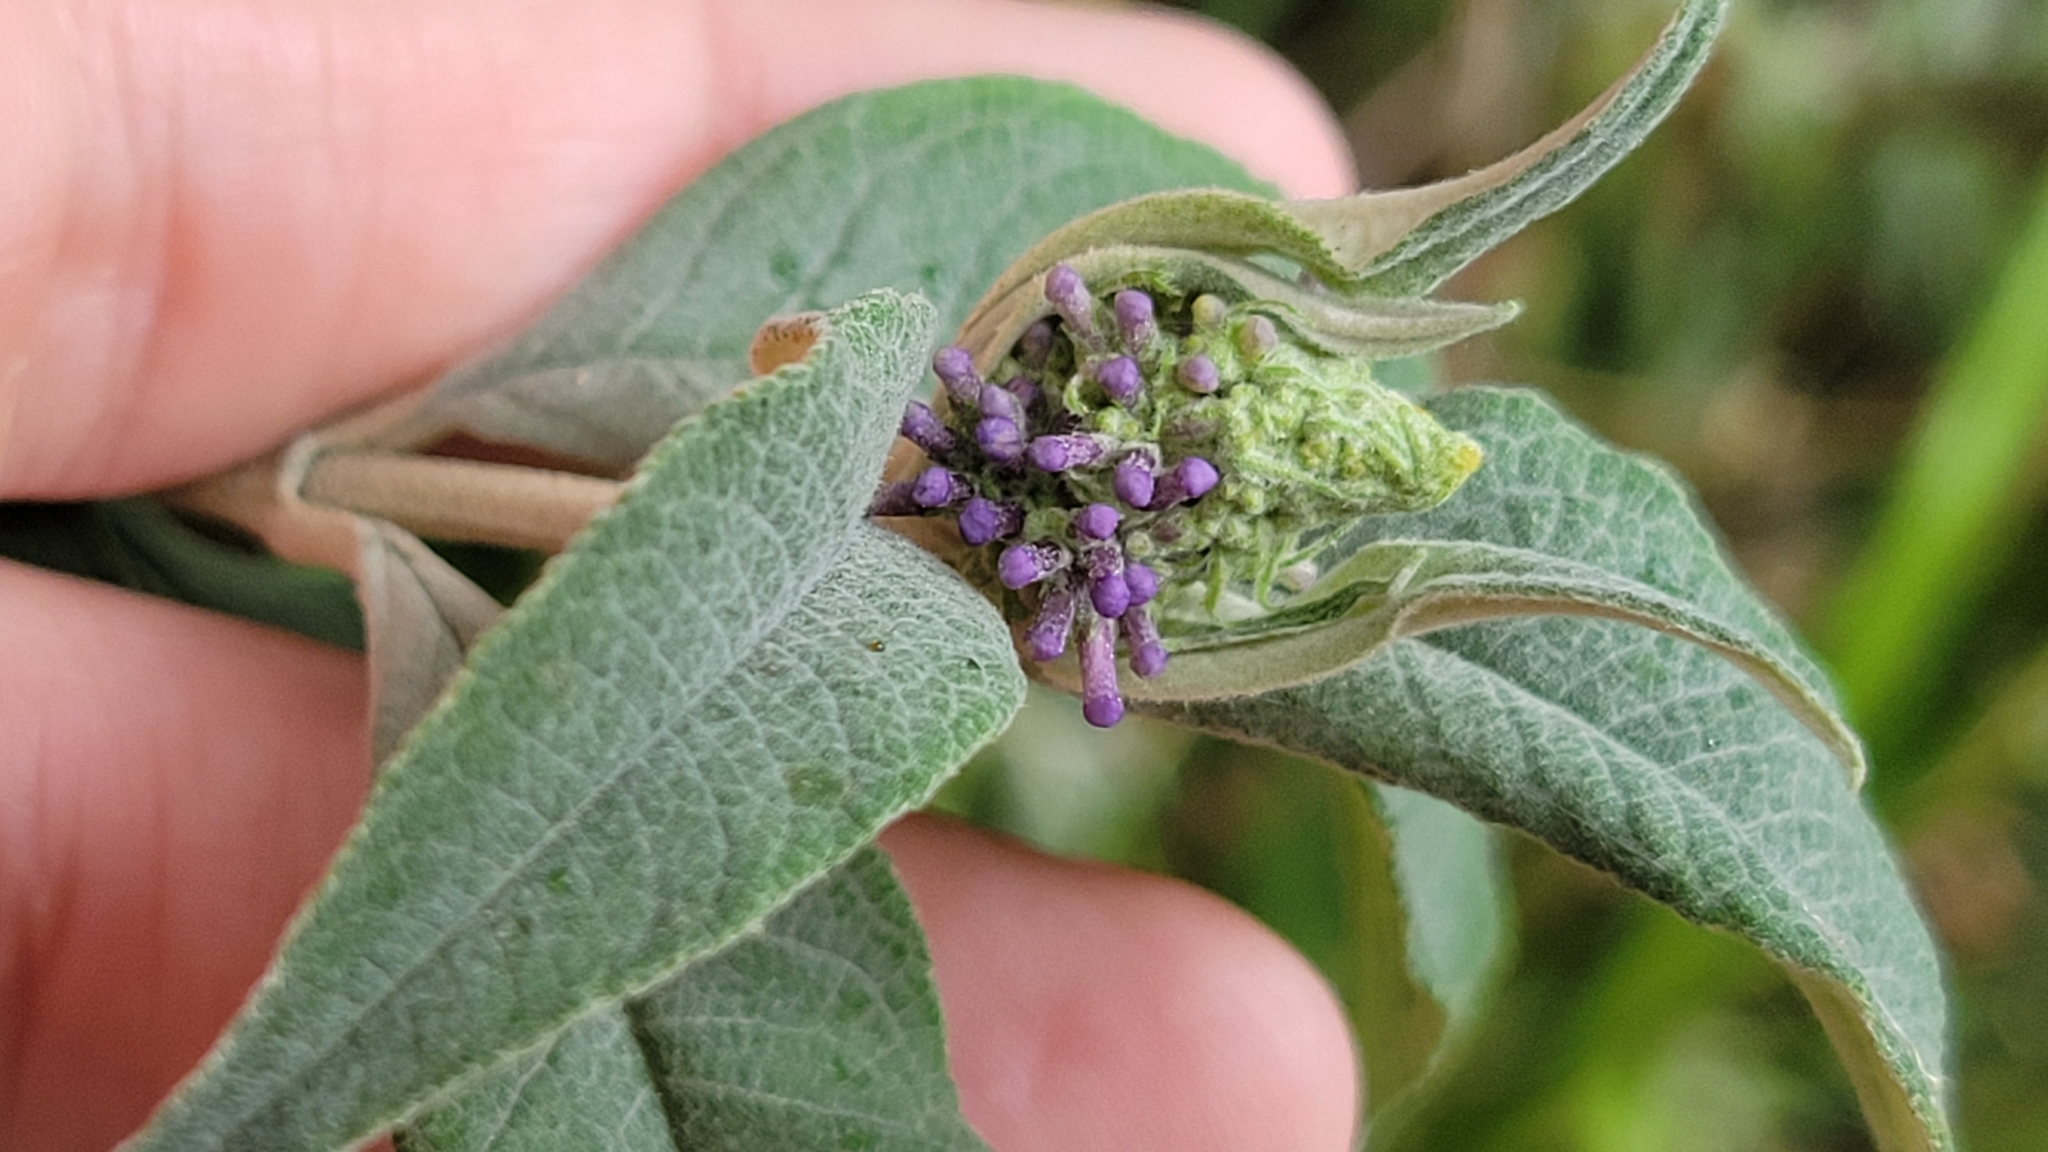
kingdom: Plantae
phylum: Tracheophyta
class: Magnoliopsida
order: Lamiales
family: Scrophulariaceae
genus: Buddleja
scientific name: Buddleja davidii
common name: Butterfly-bush
